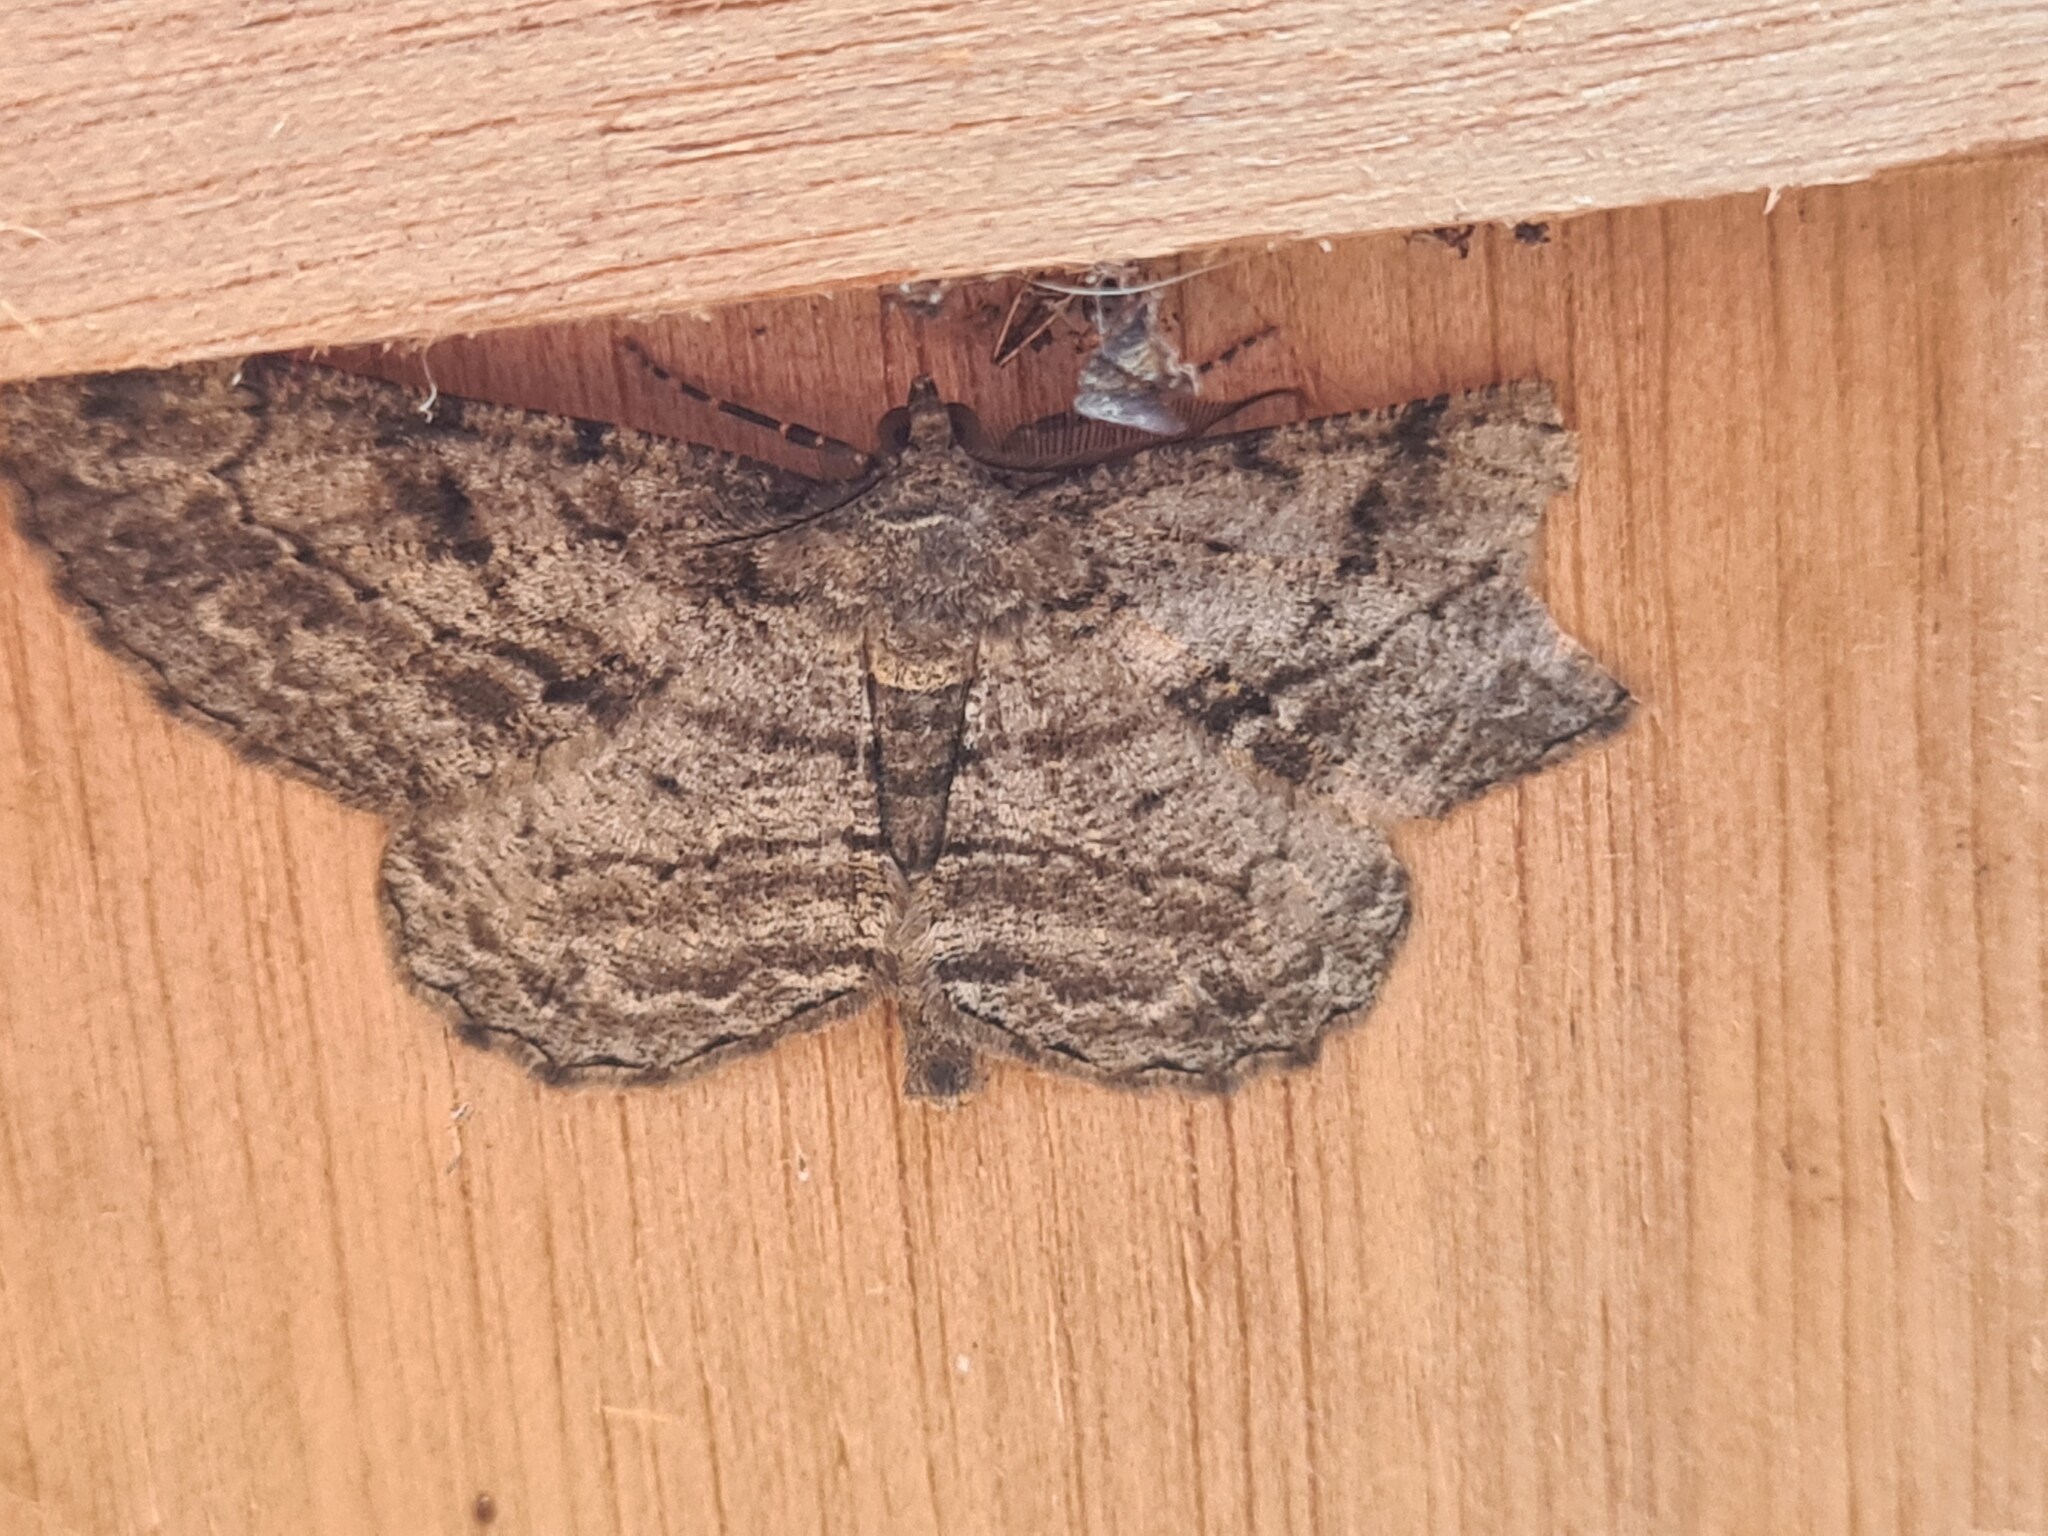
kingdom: Animalia
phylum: Arthropoda
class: Insecta
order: Lepidoptera
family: Geometridae
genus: Peribatodes
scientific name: Peribatodes rhomboidaria
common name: Willow beauty
